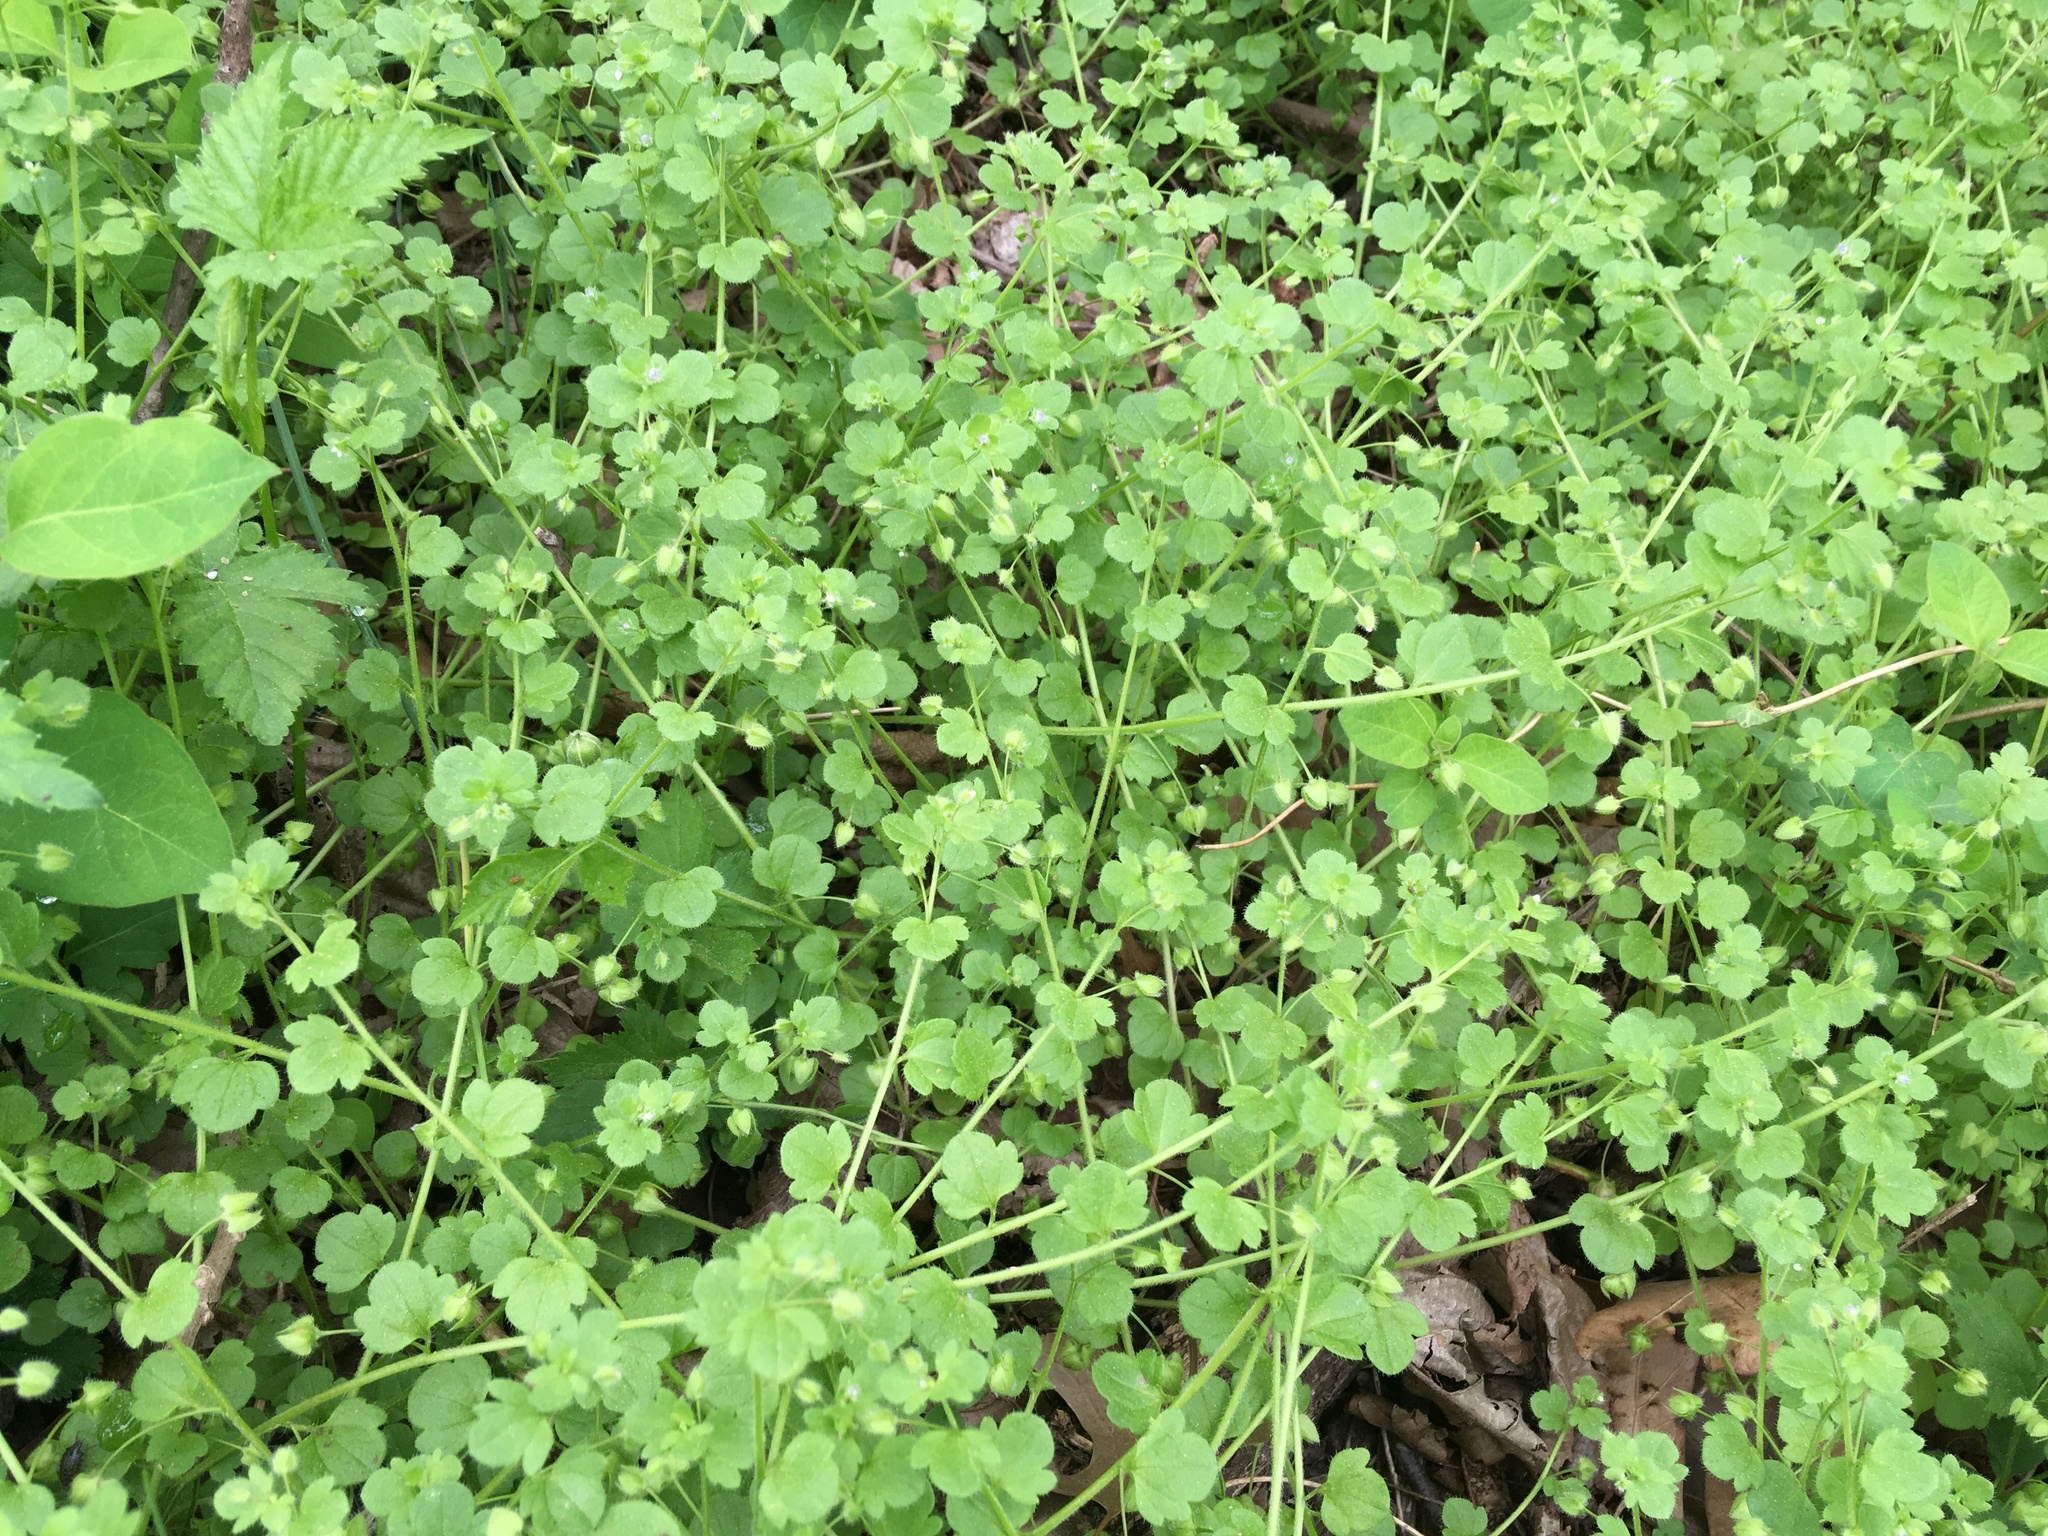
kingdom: Plantae
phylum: Tracheophyta
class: Magnoliopsida
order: Lamiales
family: Plantaginaceae
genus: Veronica
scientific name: Veronica hederifolia
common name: Ivy-leaved speedwell
